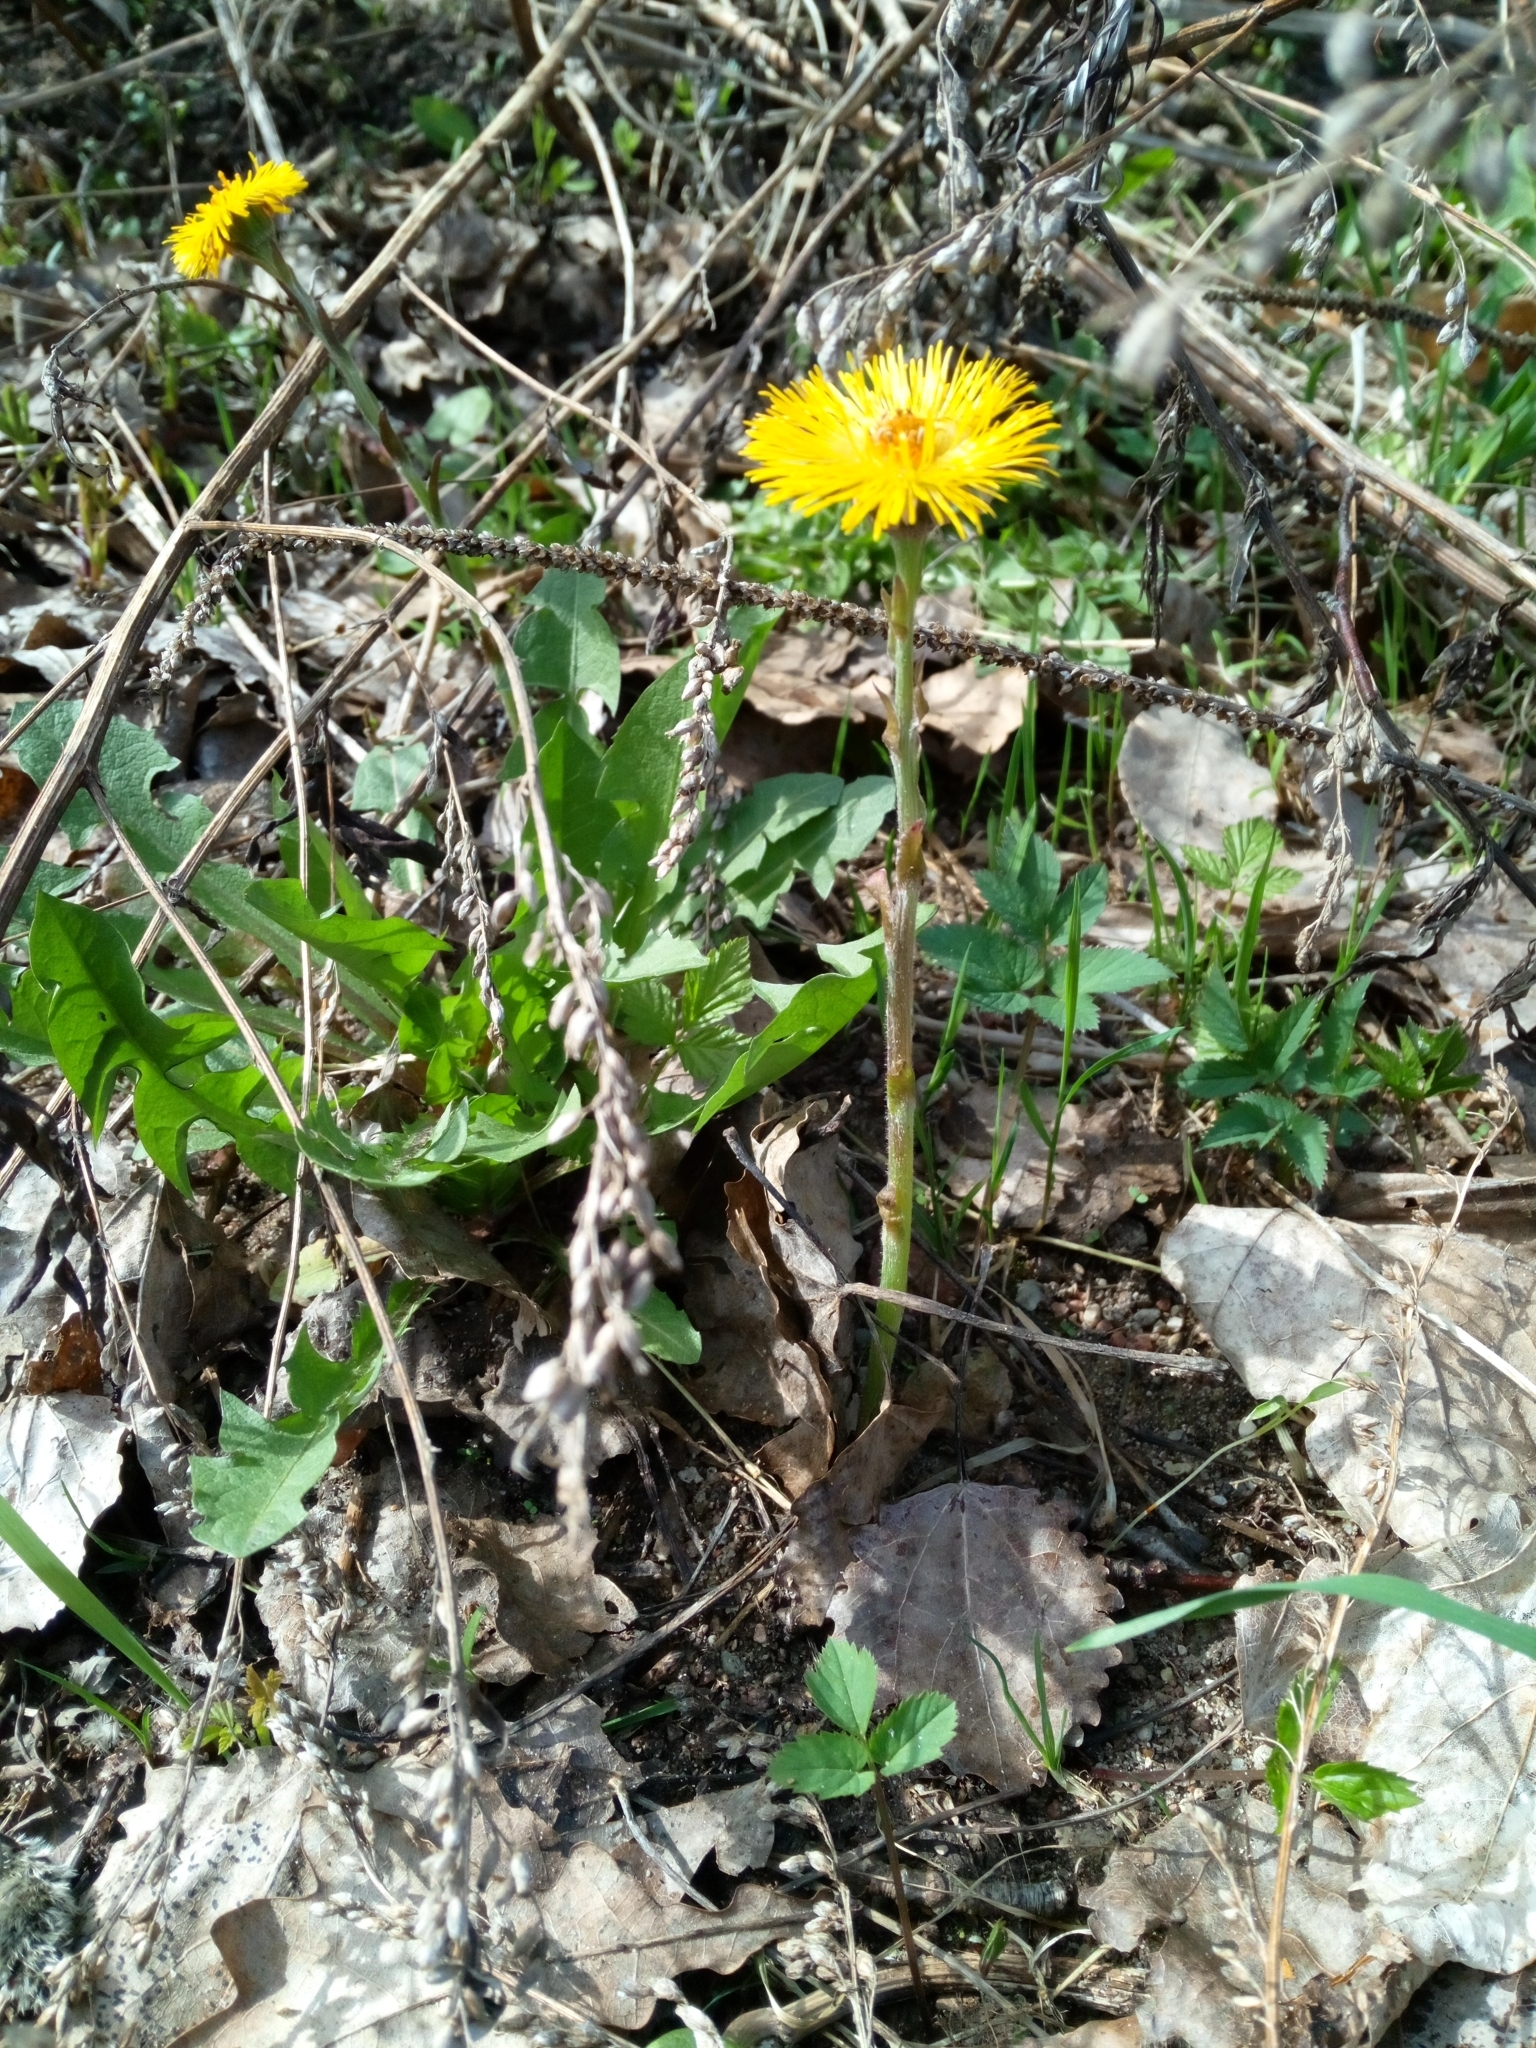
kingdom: Plantae
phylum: Tracheophyta
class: Magnoliopsida
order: Asterales
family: Asteraceae
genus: Tussilago
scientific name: Tussilago farfara
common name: Coltsfoot
